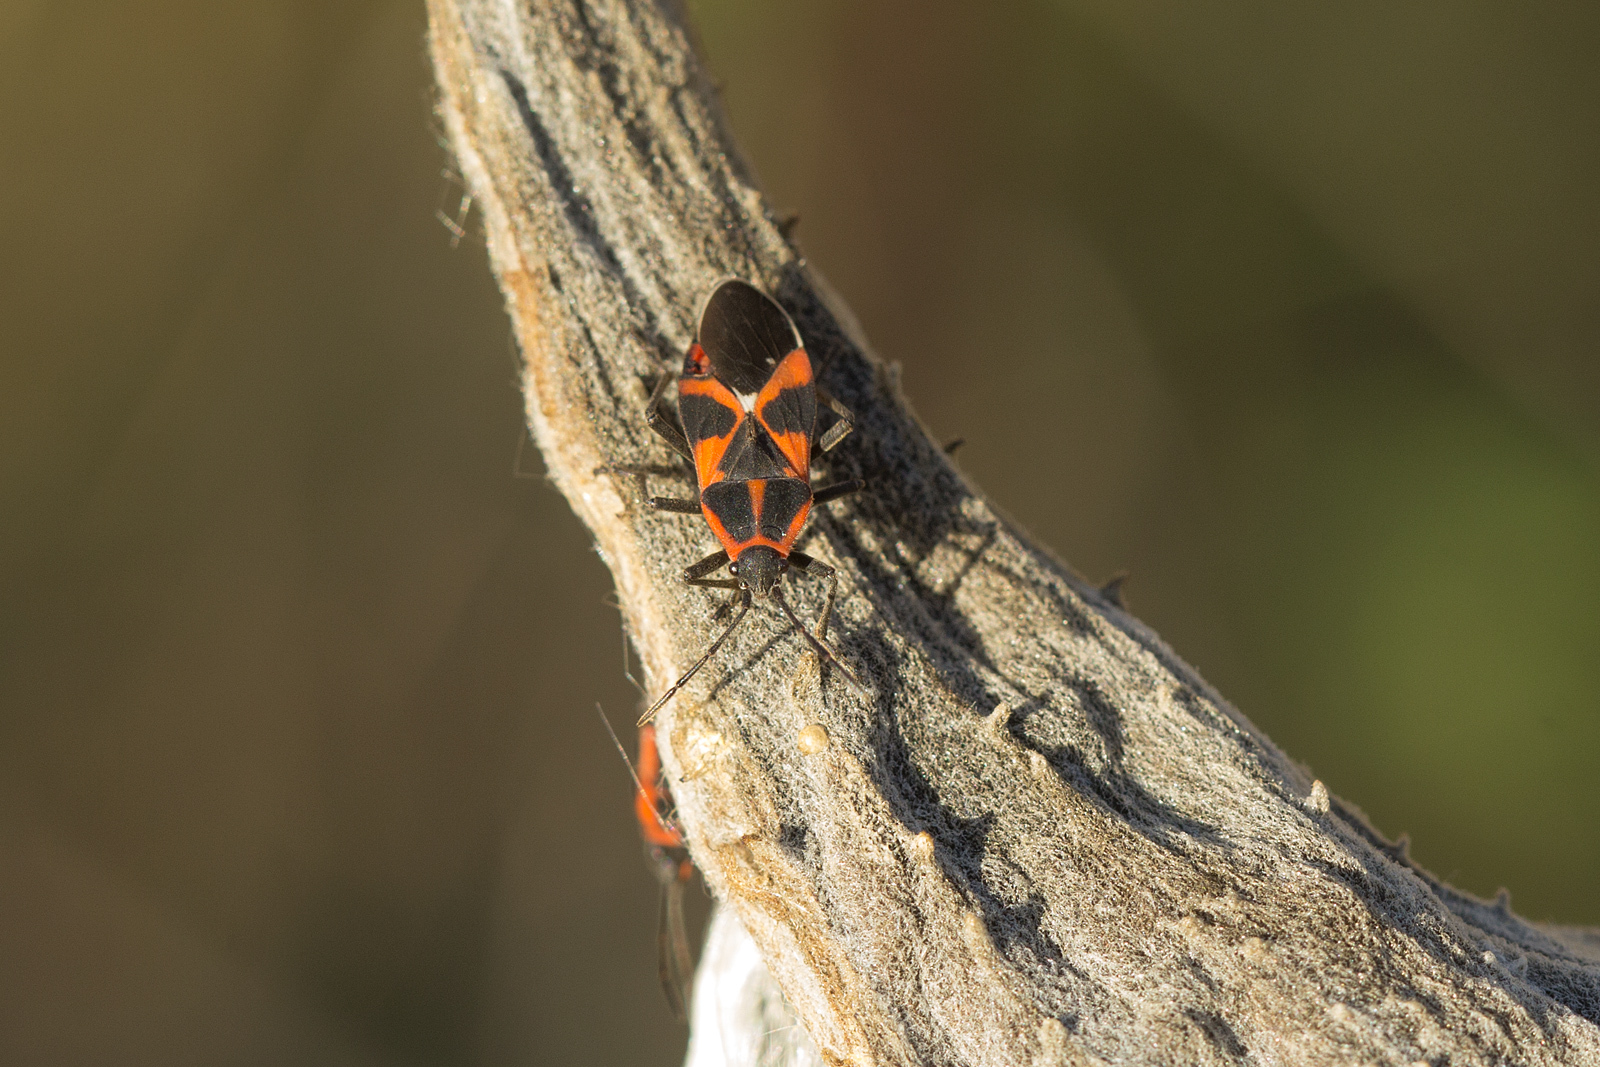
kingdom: Animalia
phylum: Arthropoda
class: Insecta
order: Hemiptera
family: Lygaeidae
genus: Tropidothorax
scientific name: Tropidothorax leucopterus
